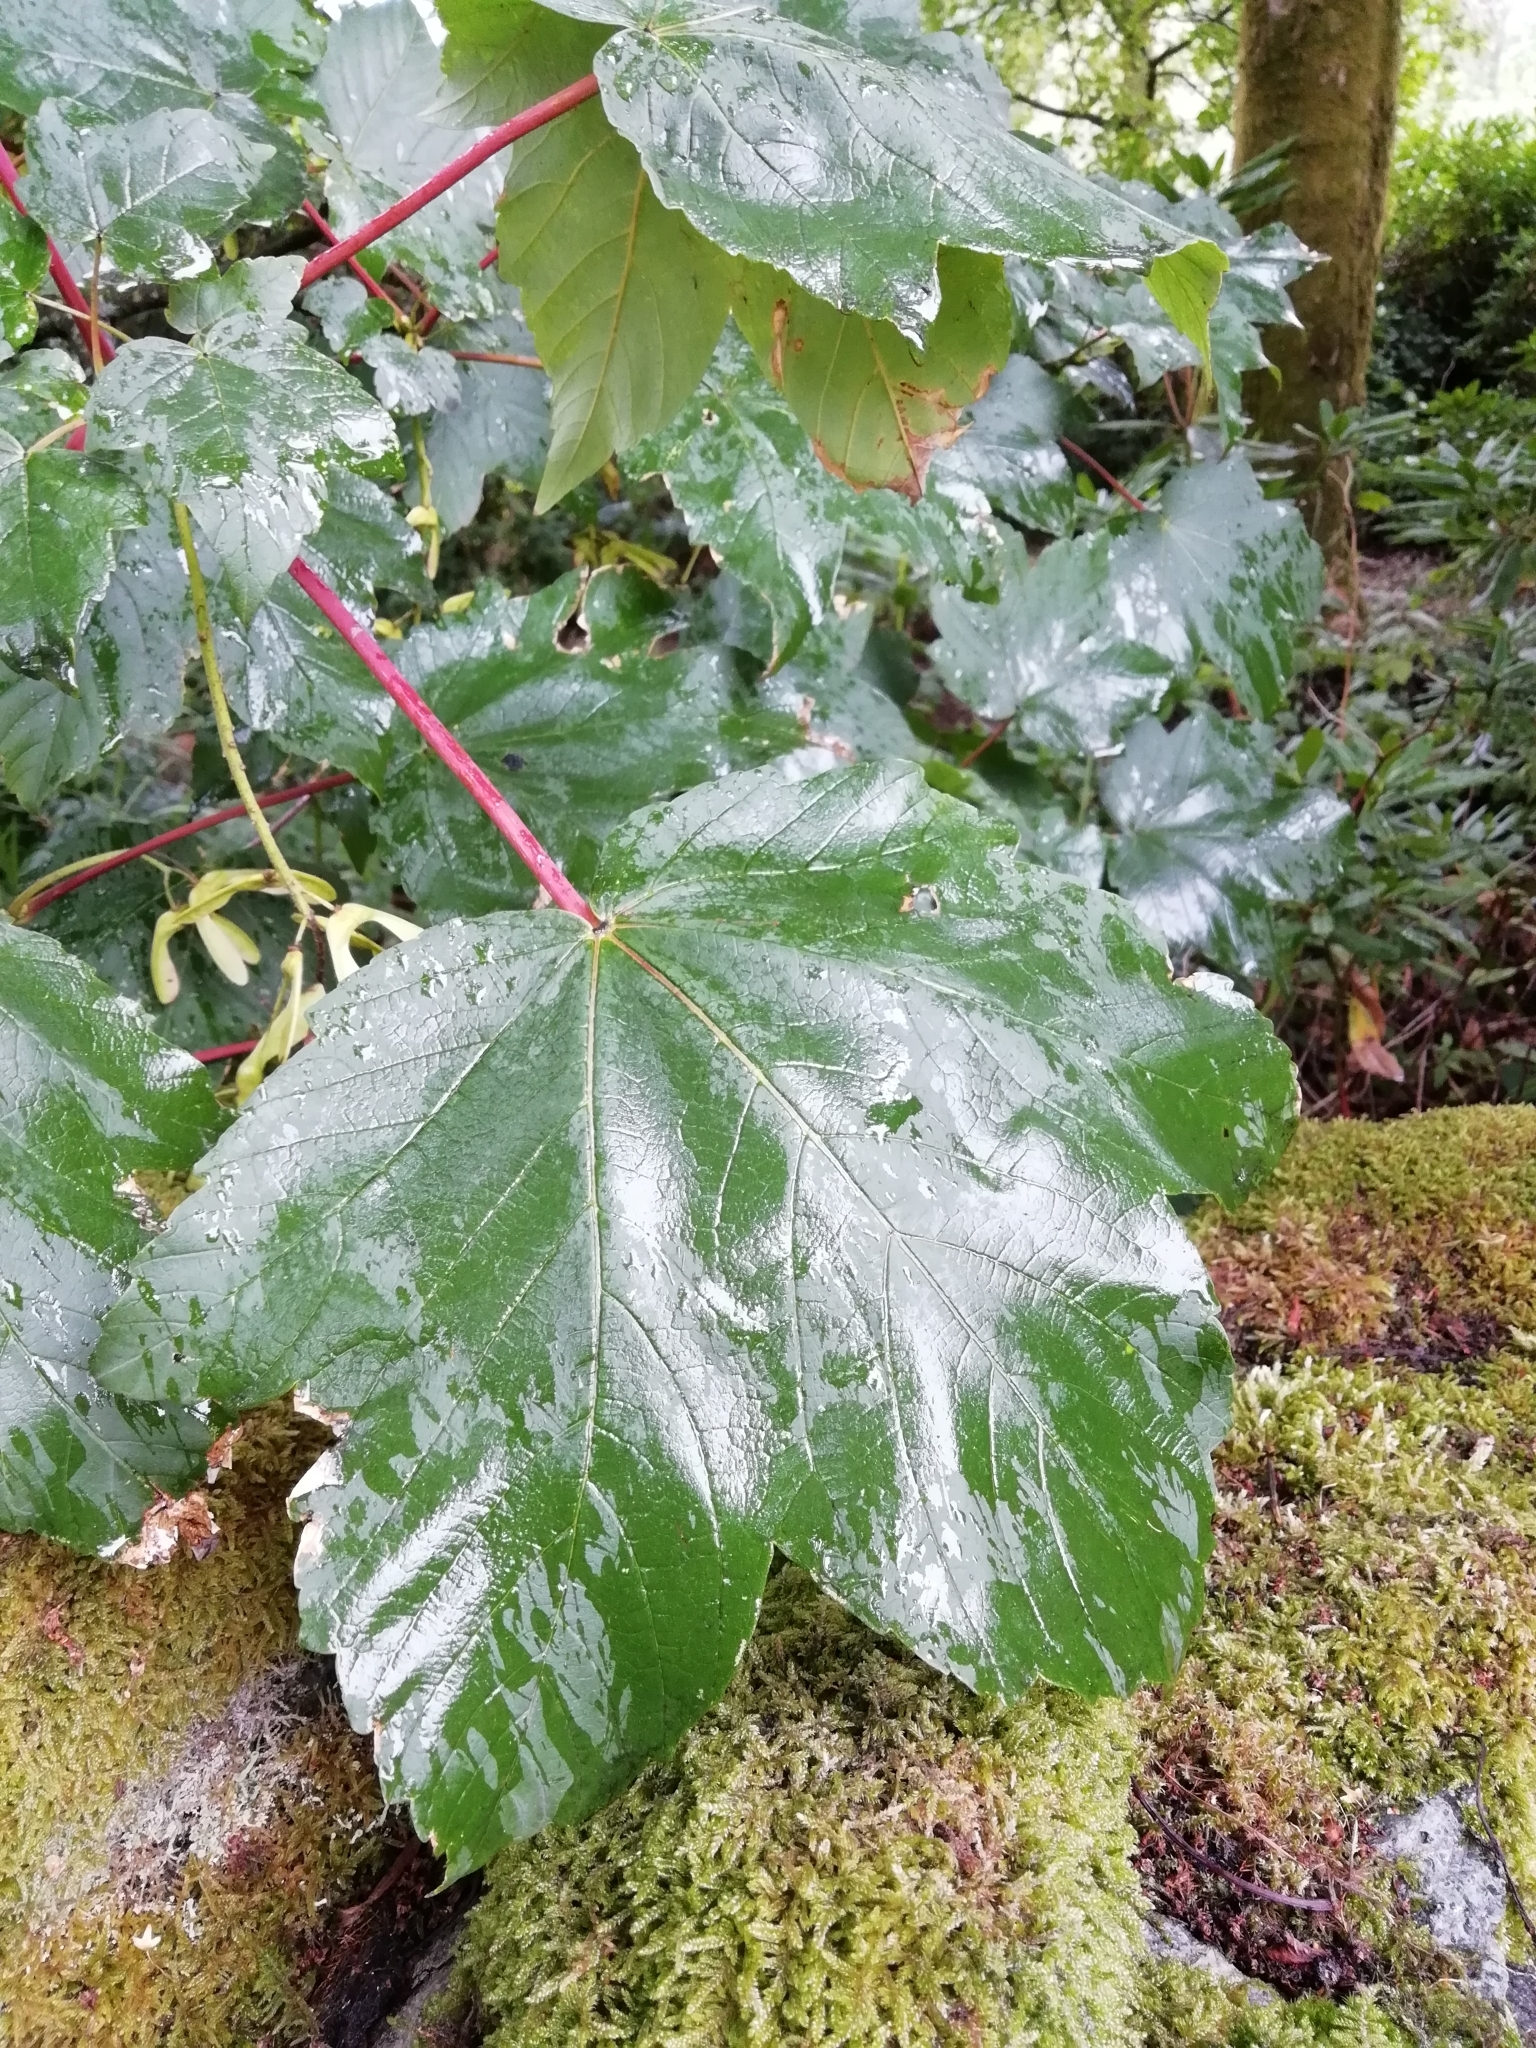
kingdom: Plantae
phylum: Tracheophyta
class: Magnoliopsida
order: Sapindales
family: Sapindaceae
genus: Acer
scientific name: Acer pseudoplatanus
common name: Sycamore
